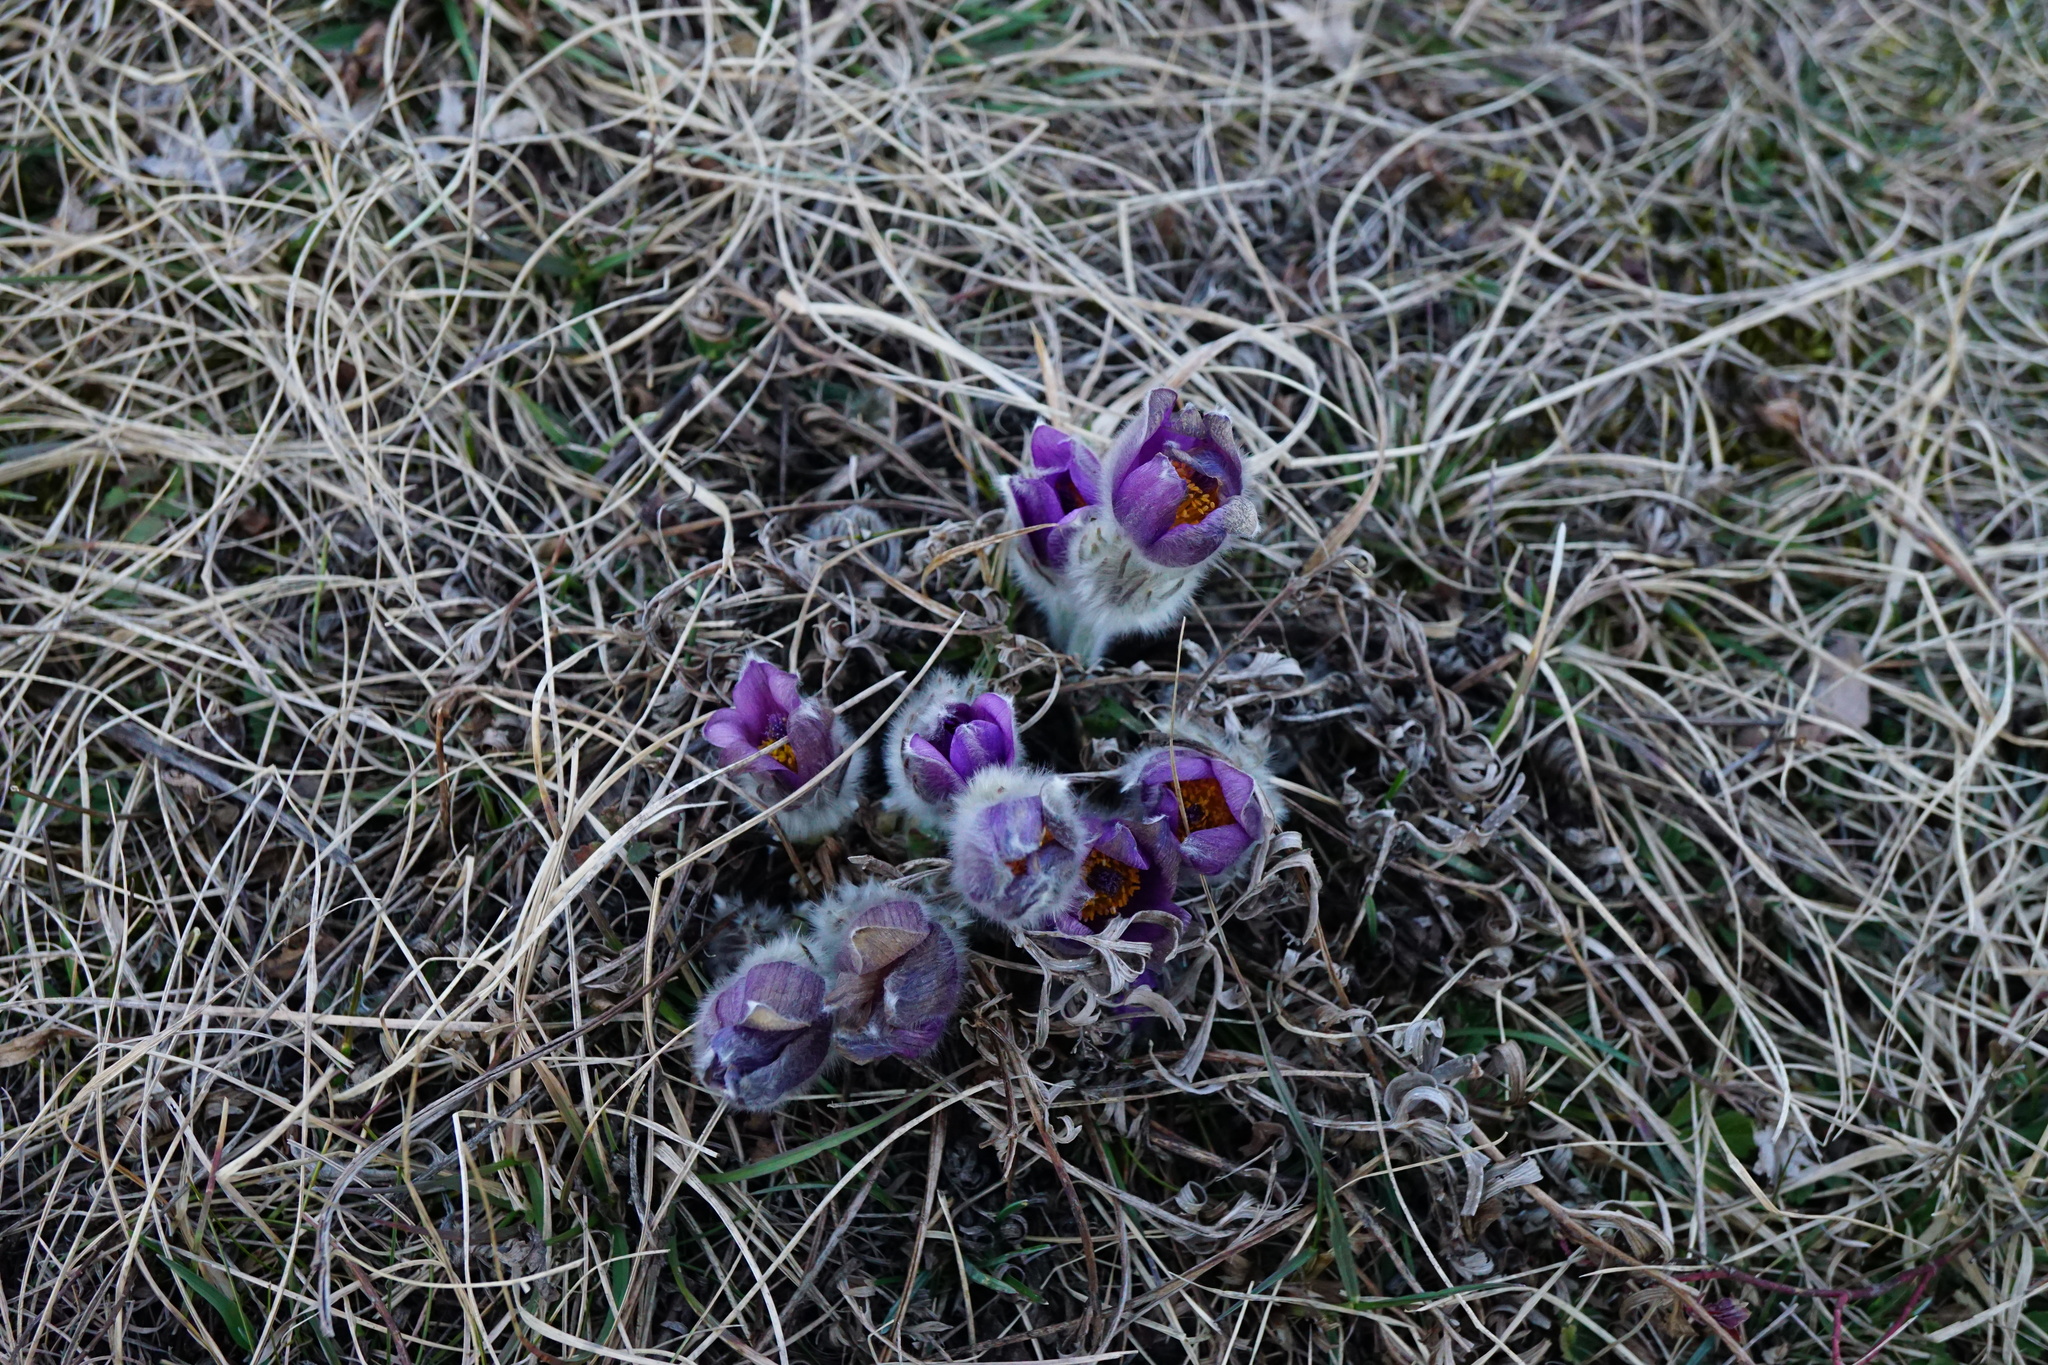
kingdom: Plantae
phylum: Tracheophyta
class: Magnoliopsida
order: Ranunculales
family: Ranunculaceae
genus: Pulsatilla
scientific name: Pulsatilla grandis
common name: Greater pasque flower
